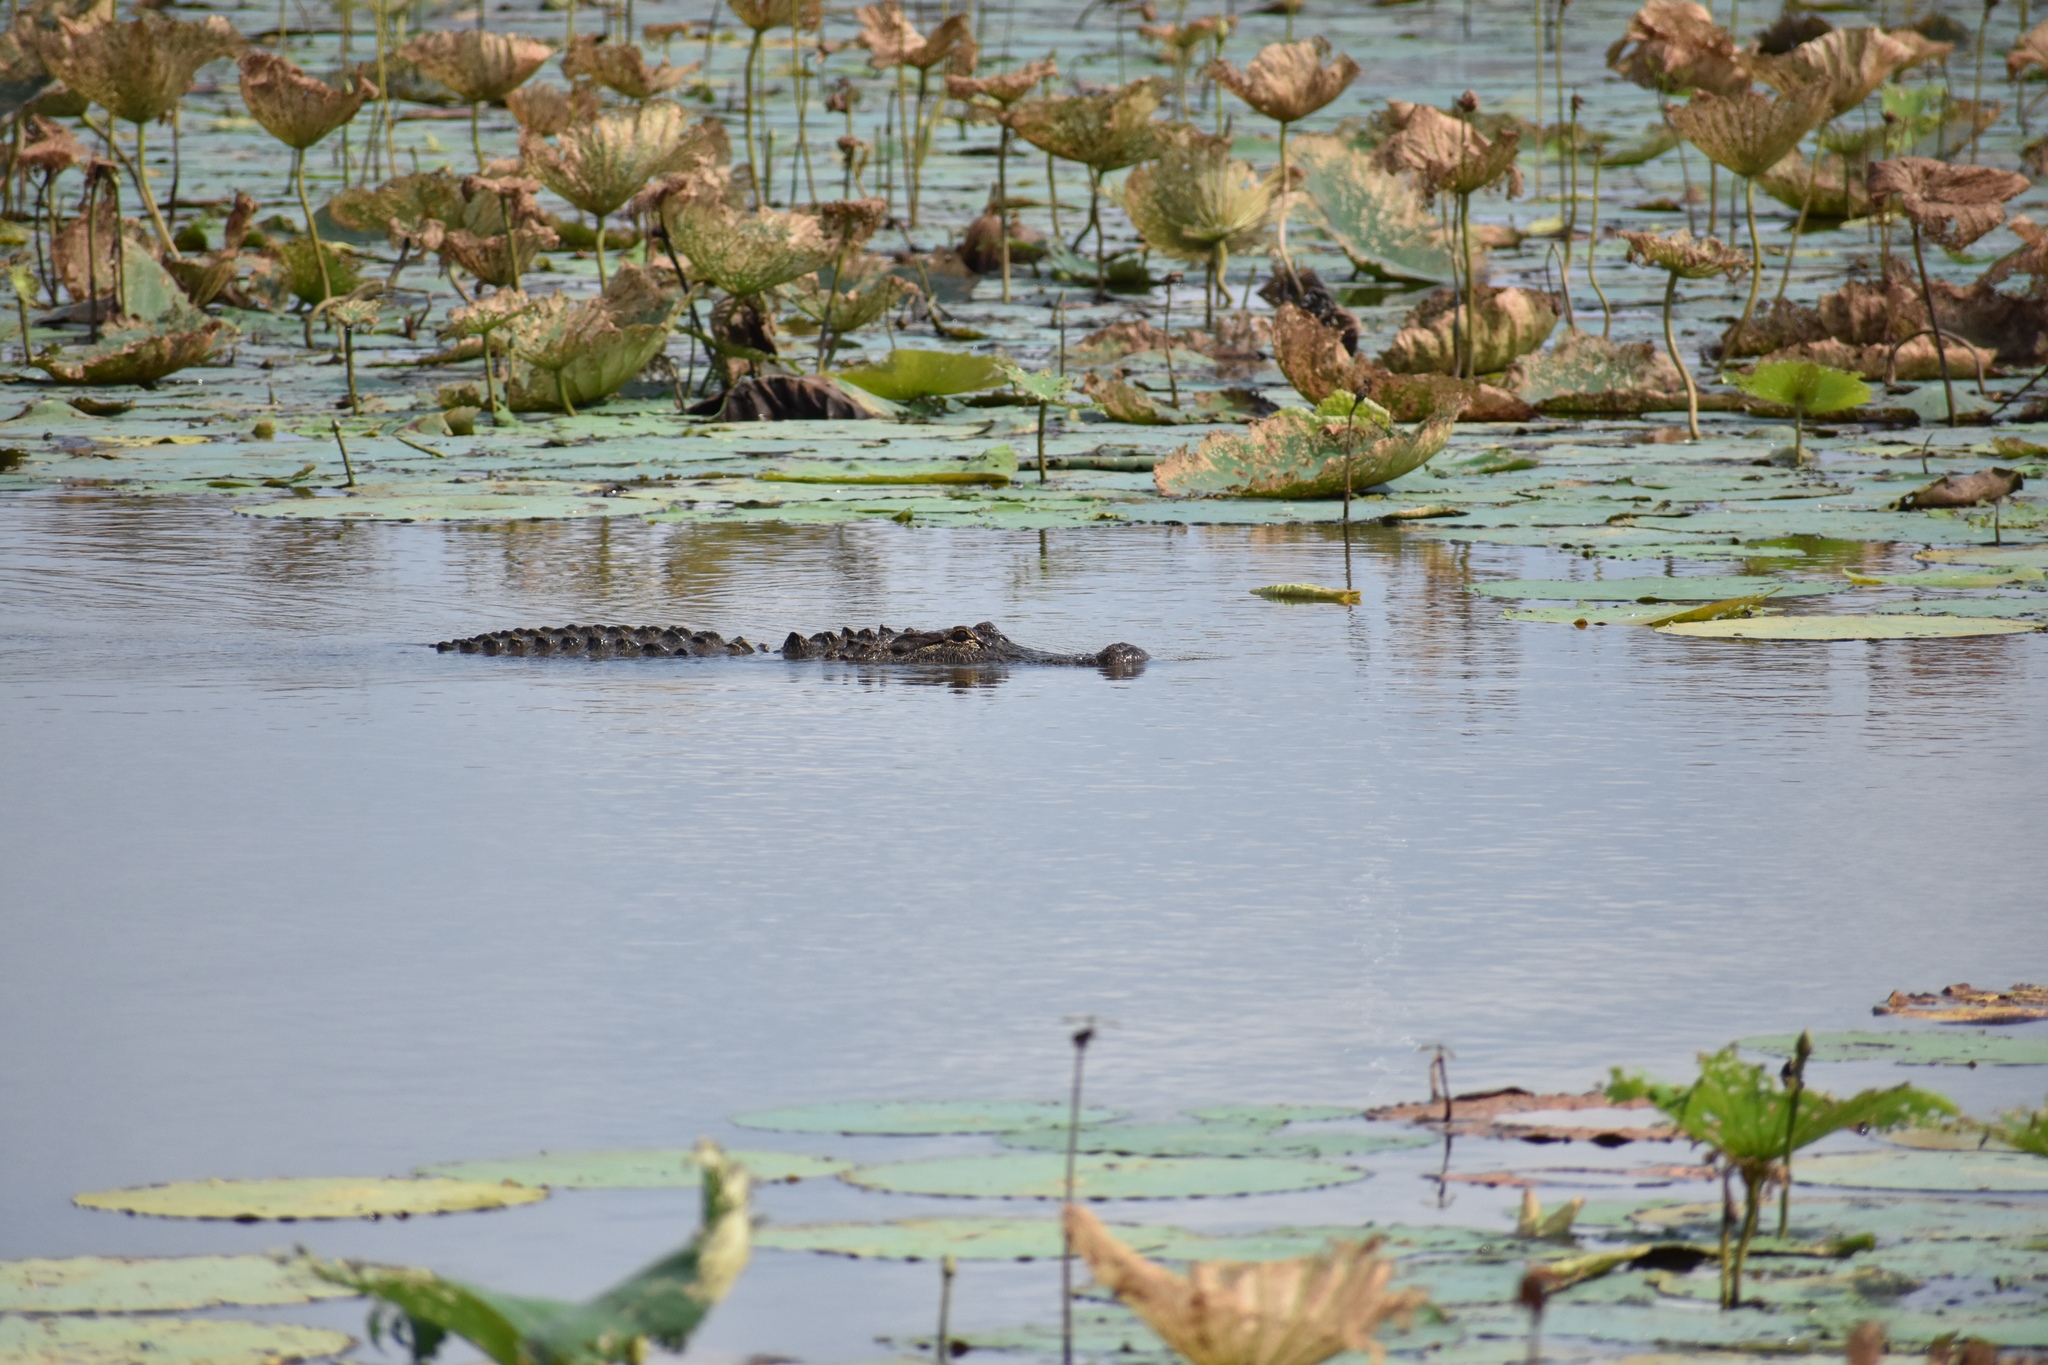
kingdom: Animalia
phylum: Chordata
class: Crocodylia
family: Alligatoridae
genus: Alligator
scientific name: Alligator mississippiensis
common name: American alligator
